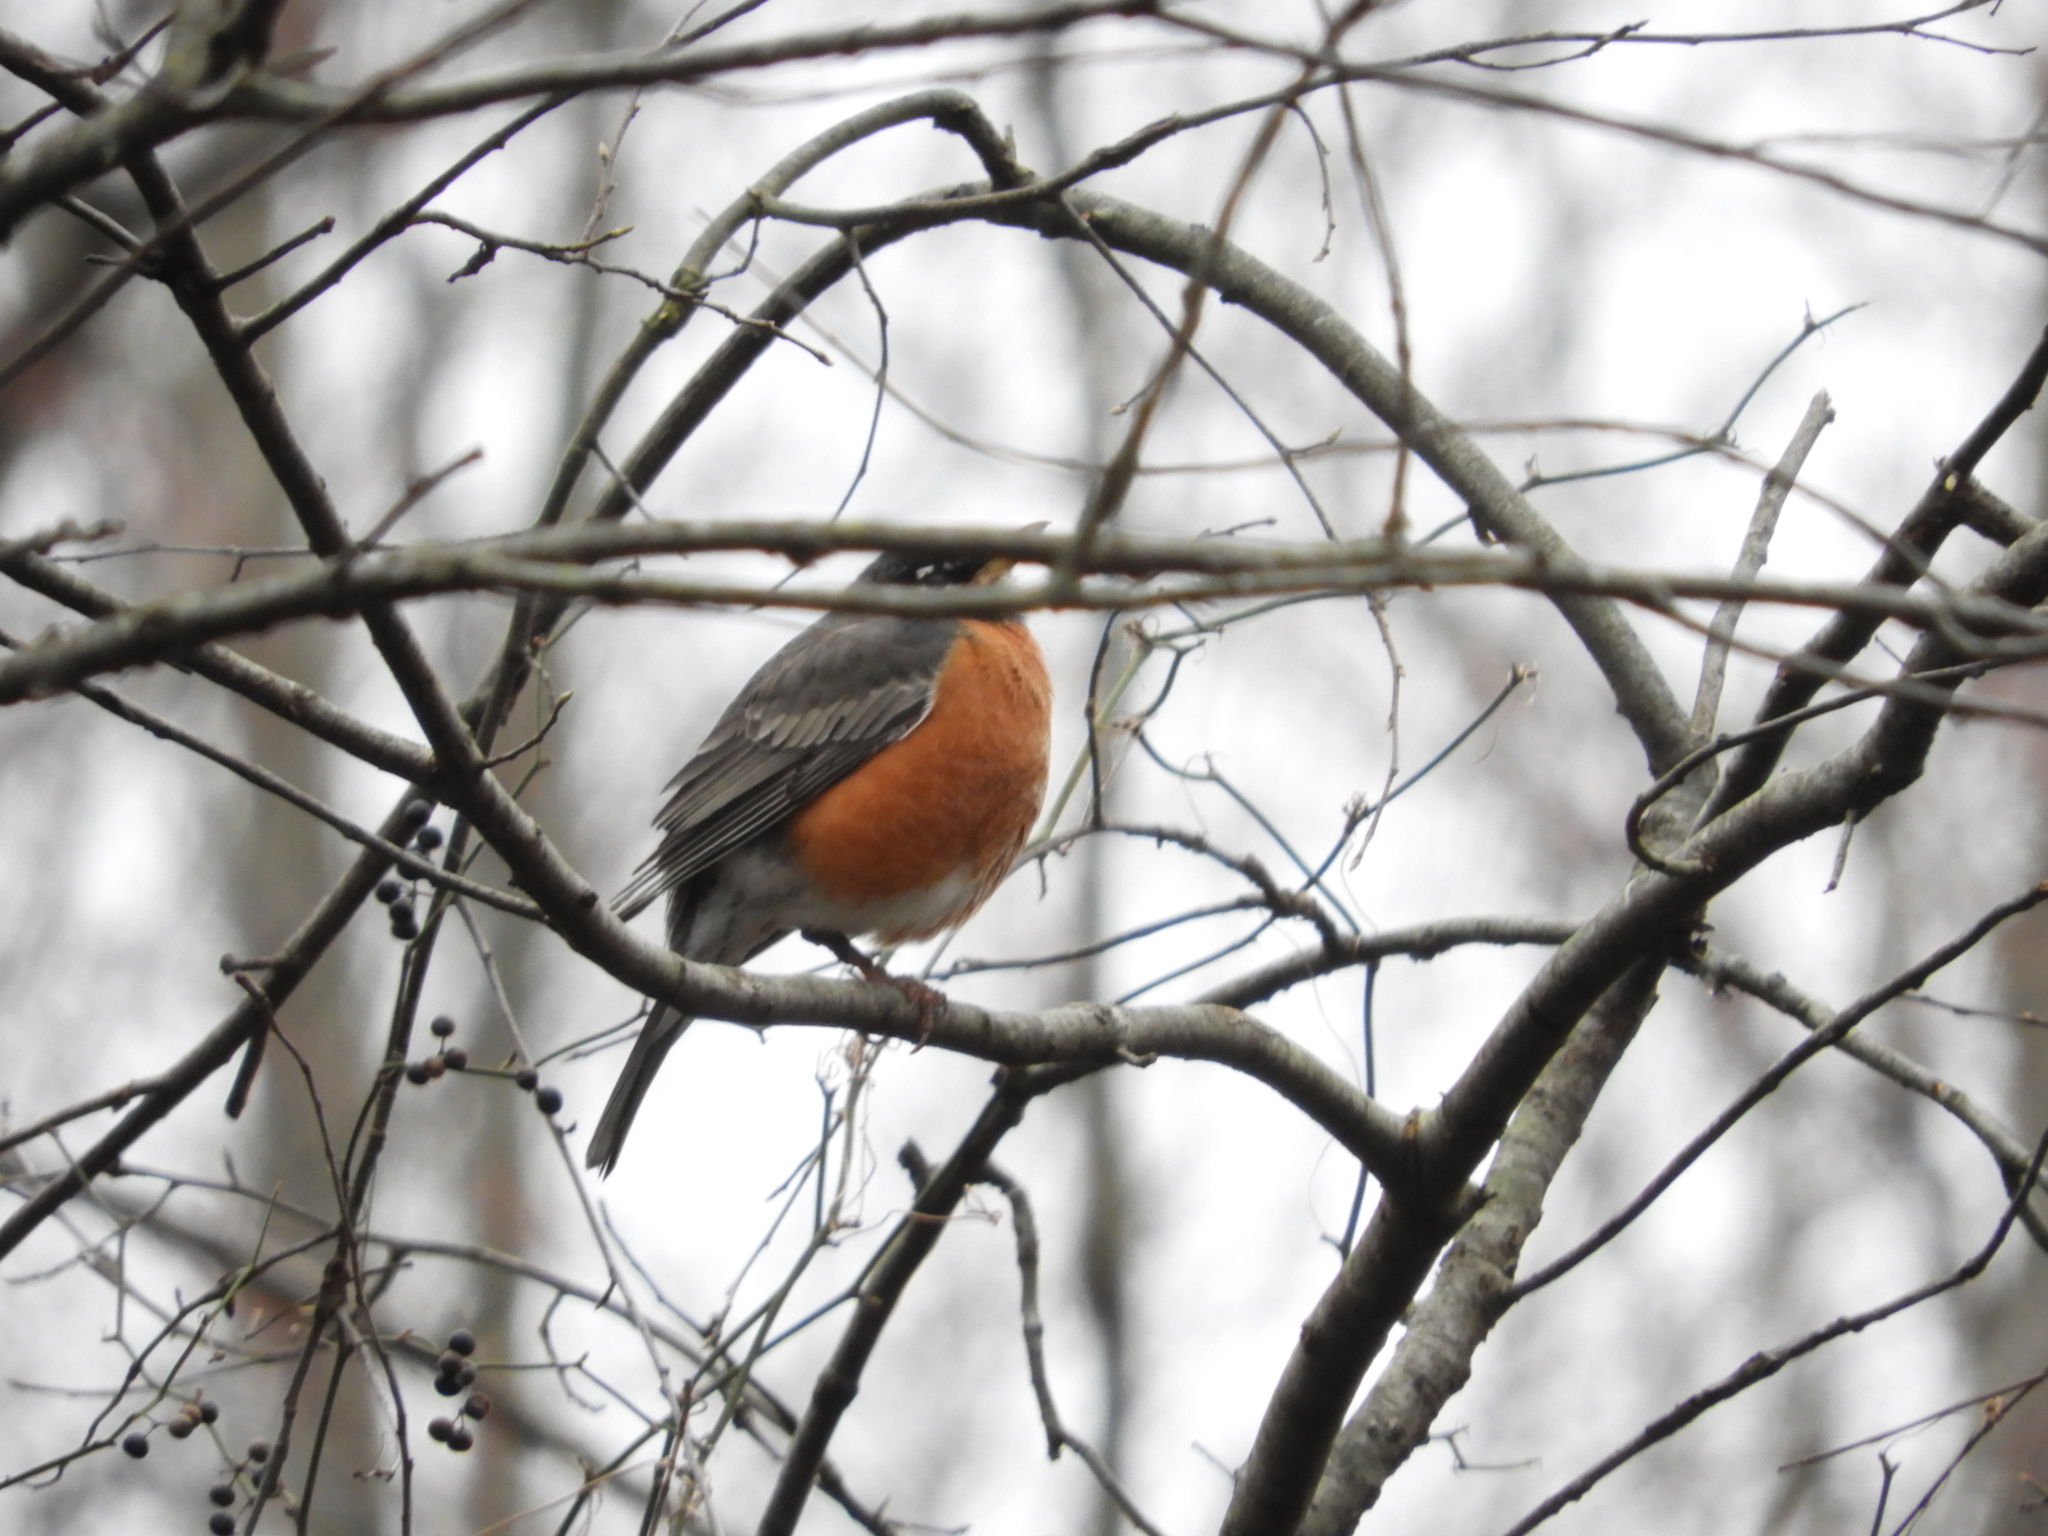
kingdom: Animalia
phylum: Chordata
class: Aves
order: Passeriformes
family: Turdidae
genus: Turdus
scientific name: Turdus migratorius
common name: American robin
